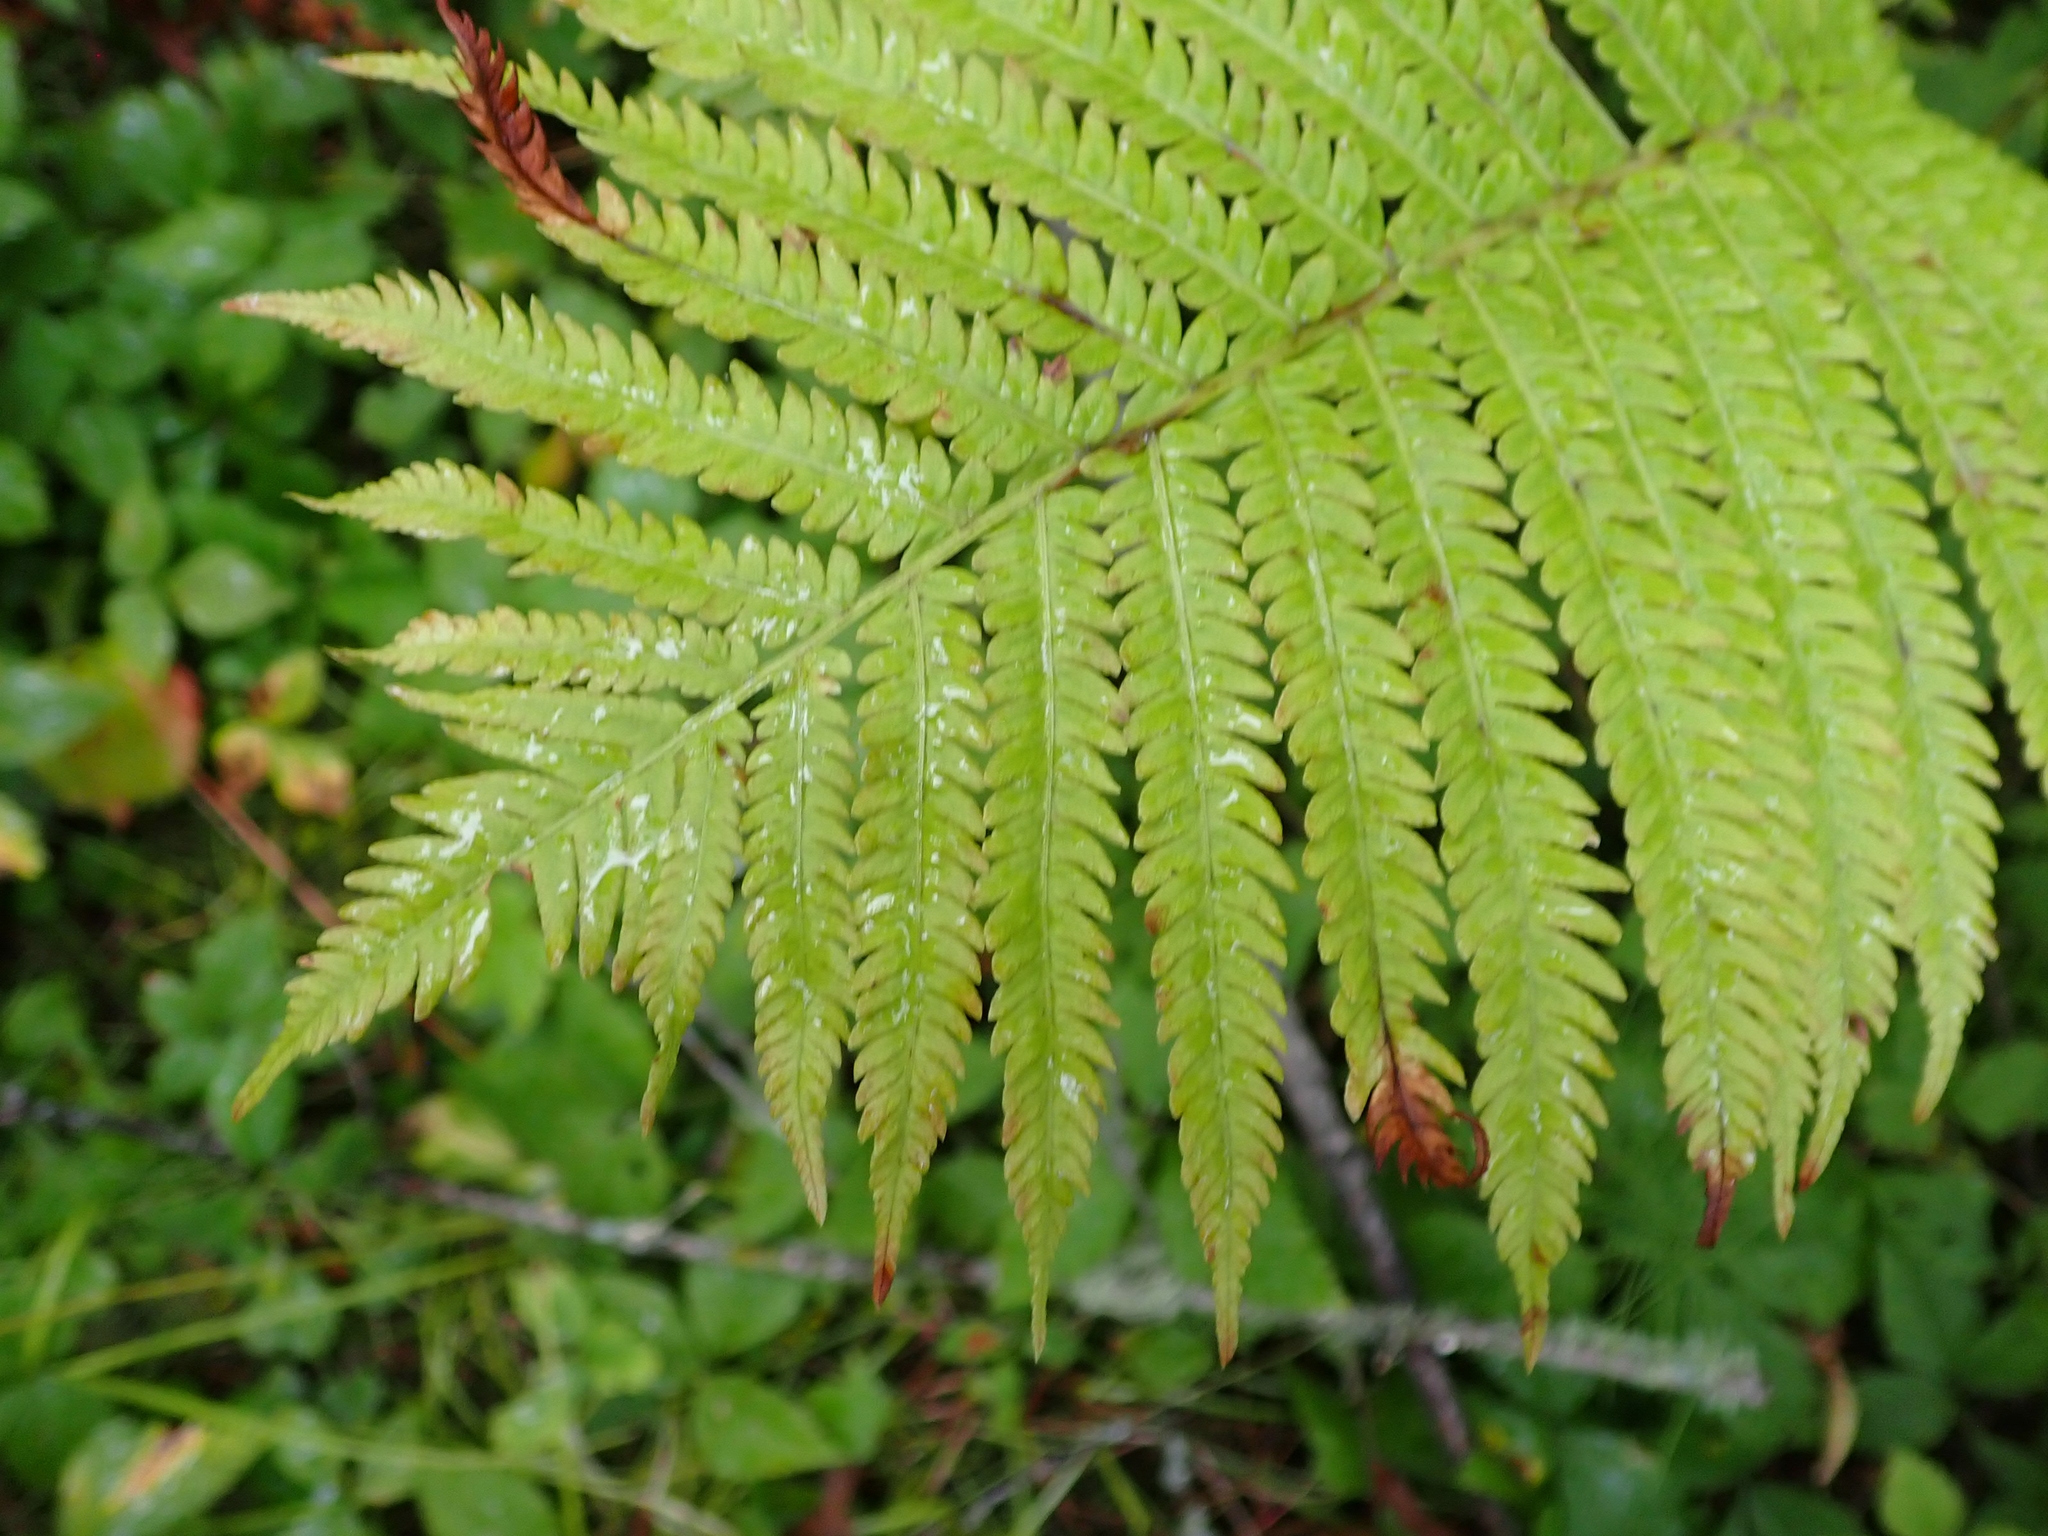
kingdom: Plantae
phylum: Tracheophyta
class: Polypodiopsida
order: Polypodiales
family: Onocleaceae
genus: Matteuccia
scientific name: Matteuccia struthiopteris
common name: Ostrich fern
